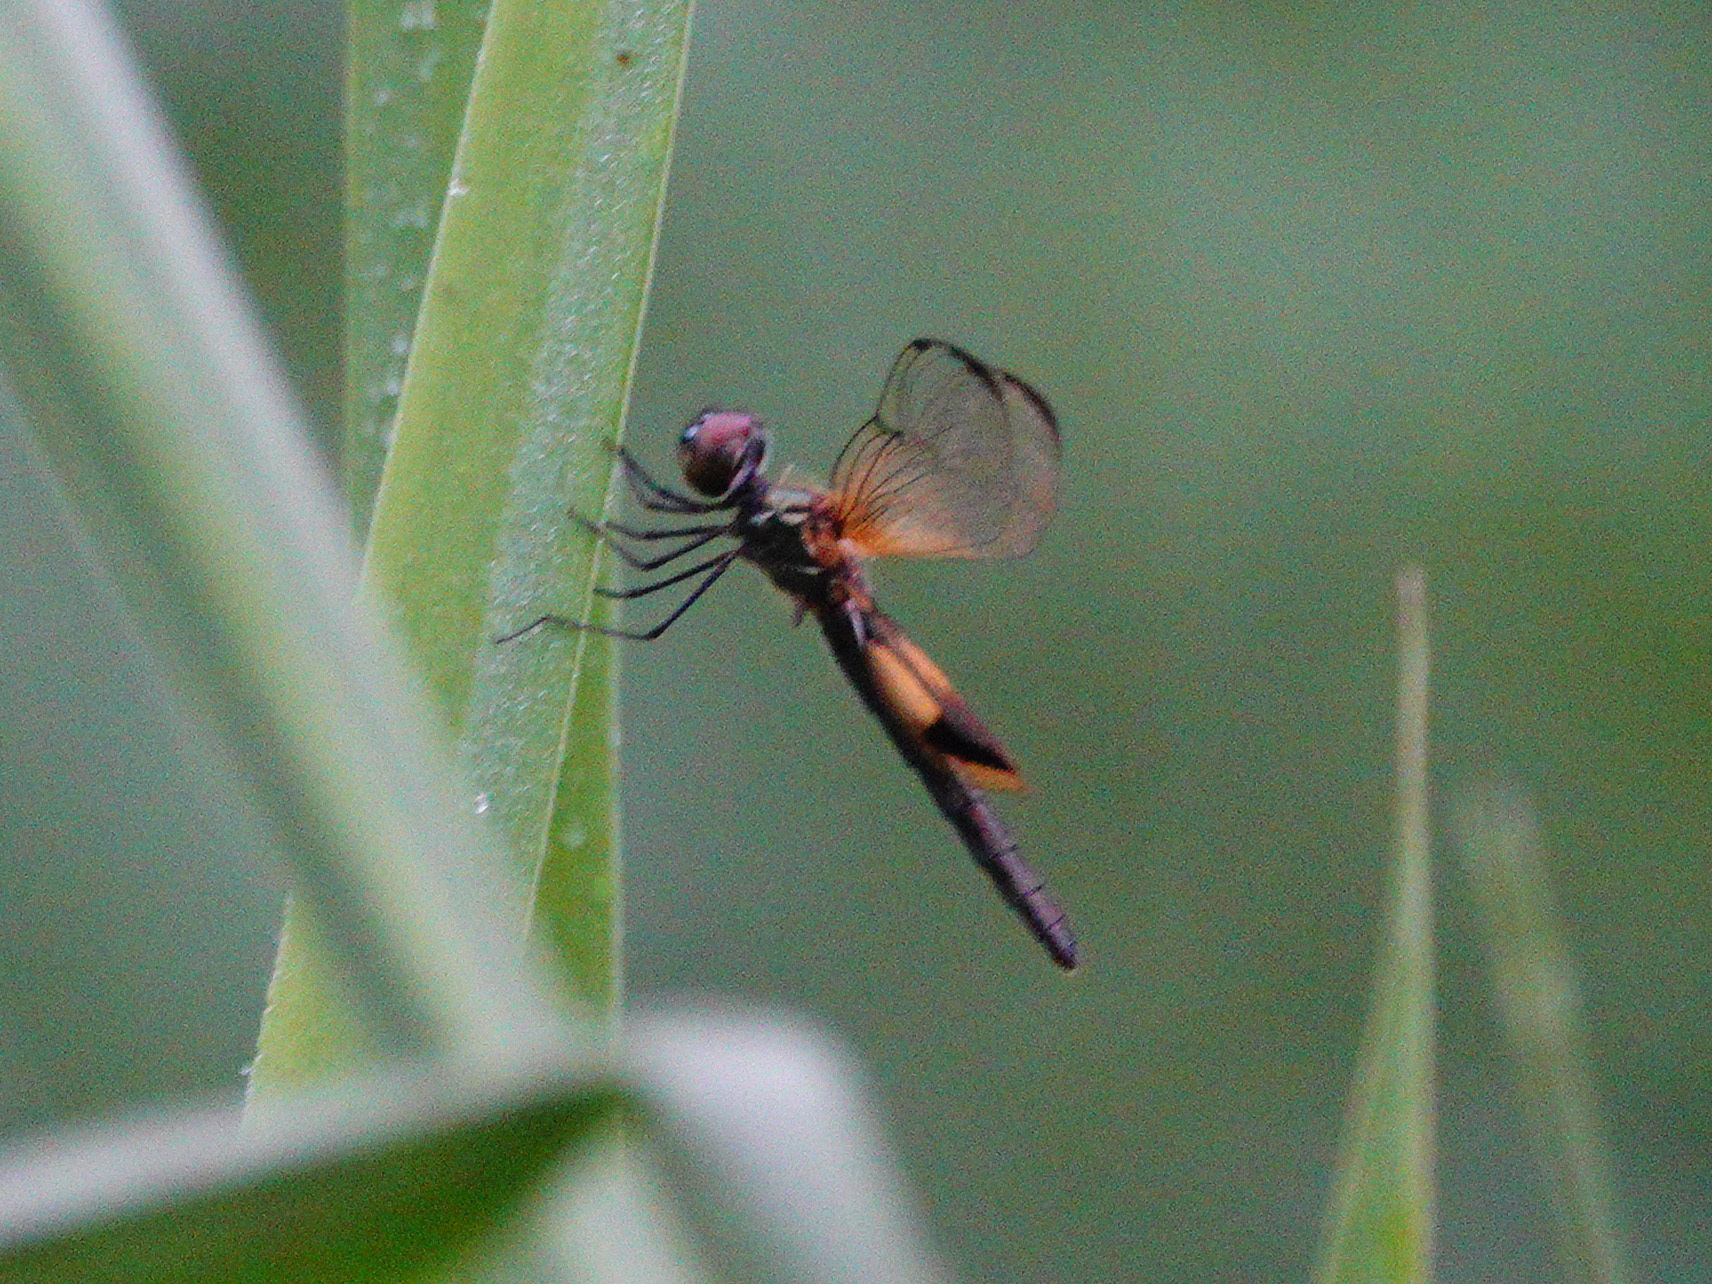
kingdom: Animalia
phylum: Arthropoda
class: Insecta
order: Odonata
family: Libellulidae
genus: Rhyothemis
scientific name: Rhyothemis phyllis
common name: Yellow-barred flutterer
